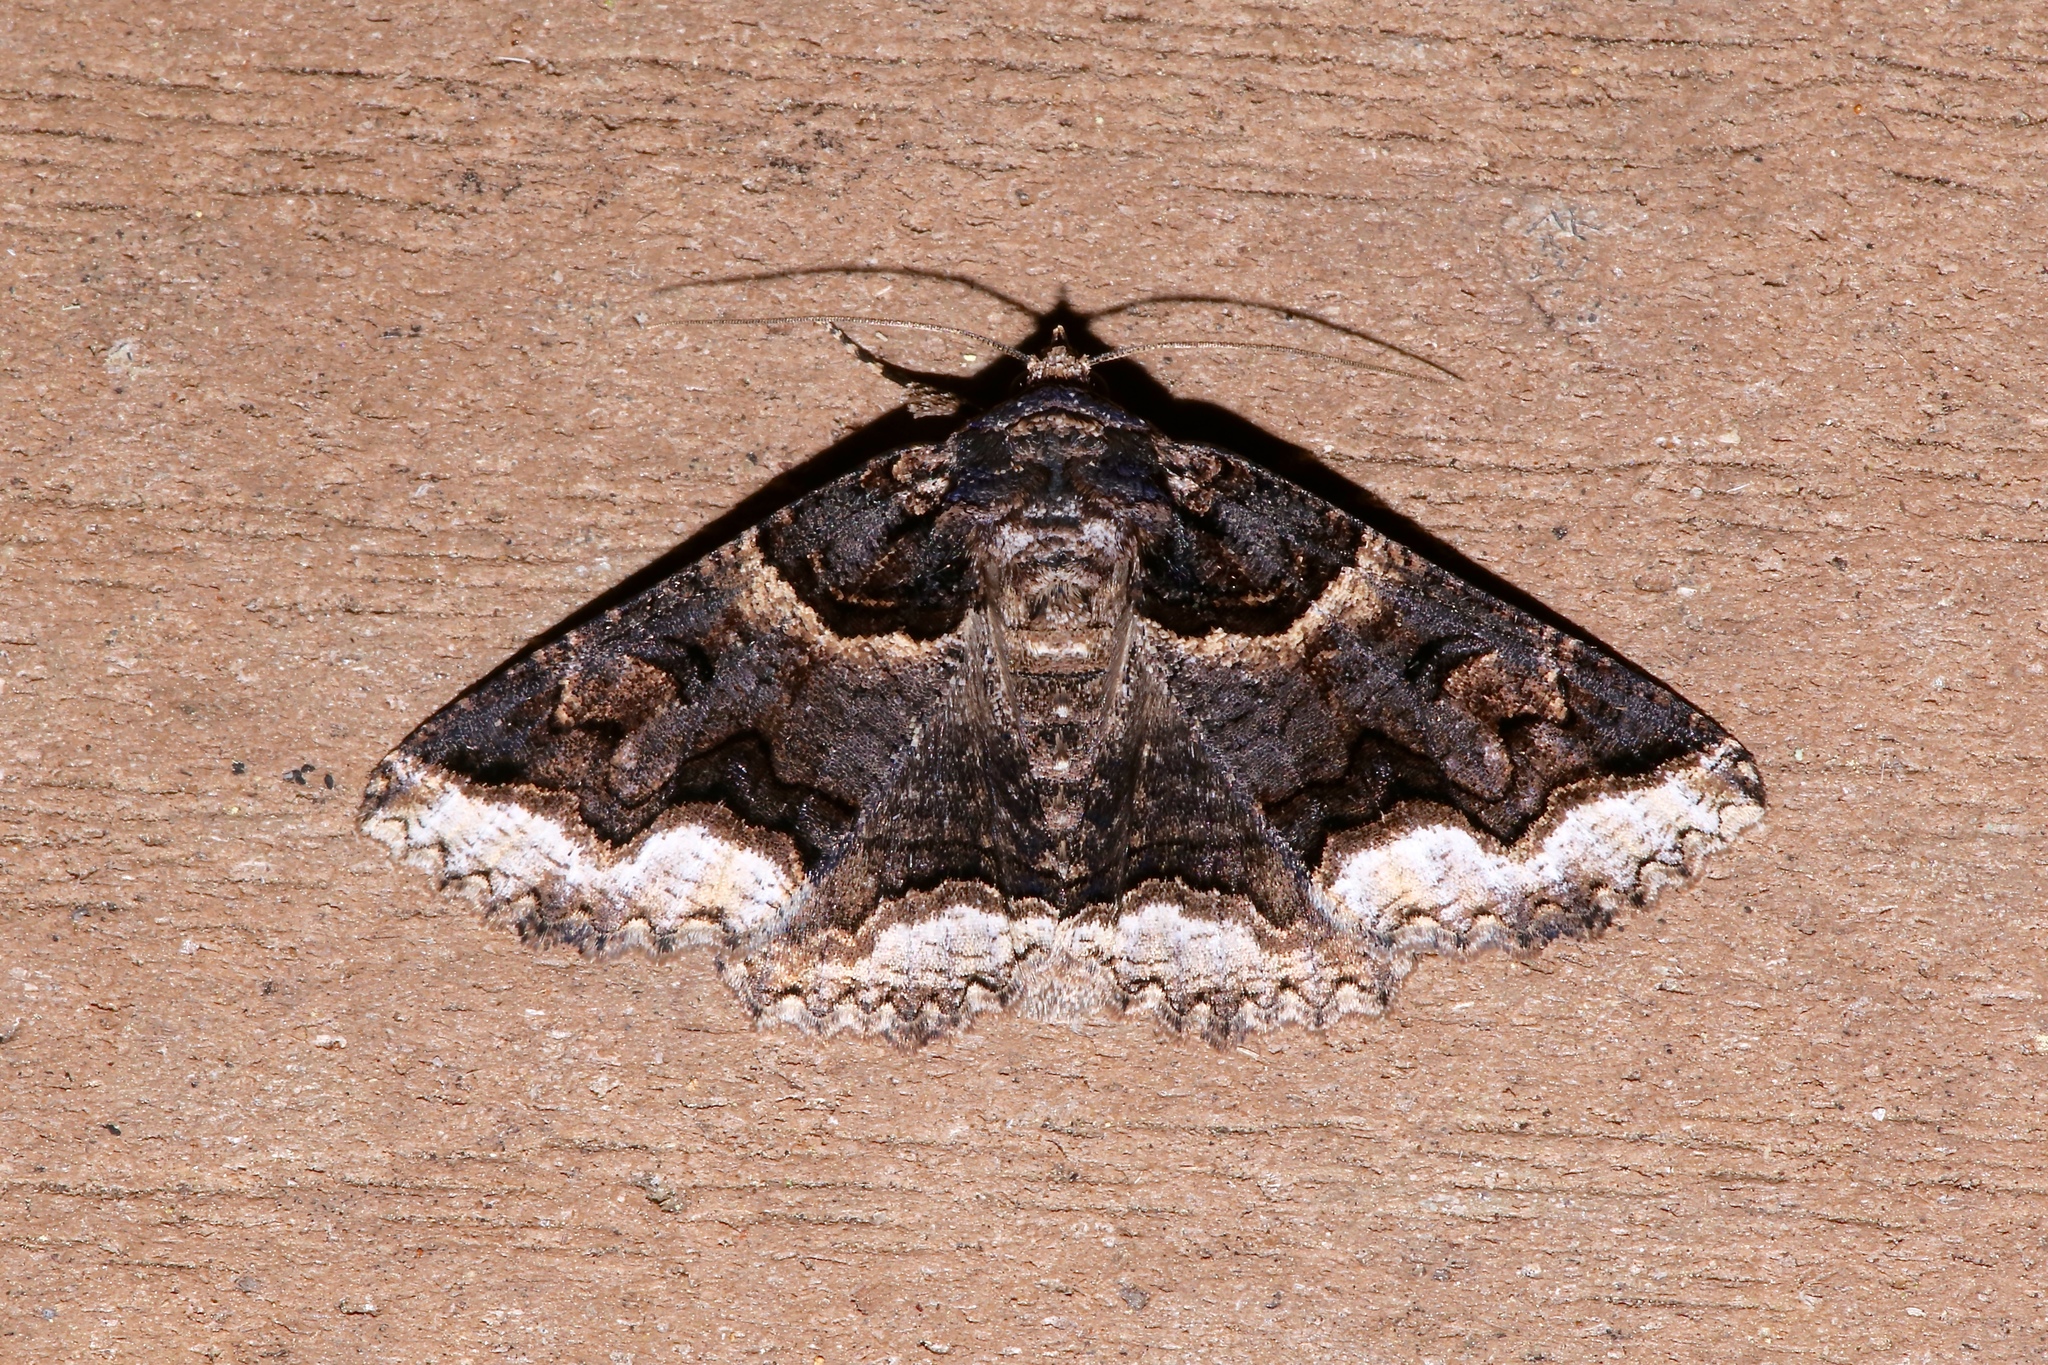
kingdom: Animalia
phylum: Arthropoda
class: Insecta
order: Lepidoptera
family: Erebidae
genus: Zale
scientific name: Zale calycanthata
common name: Double-banded zale
